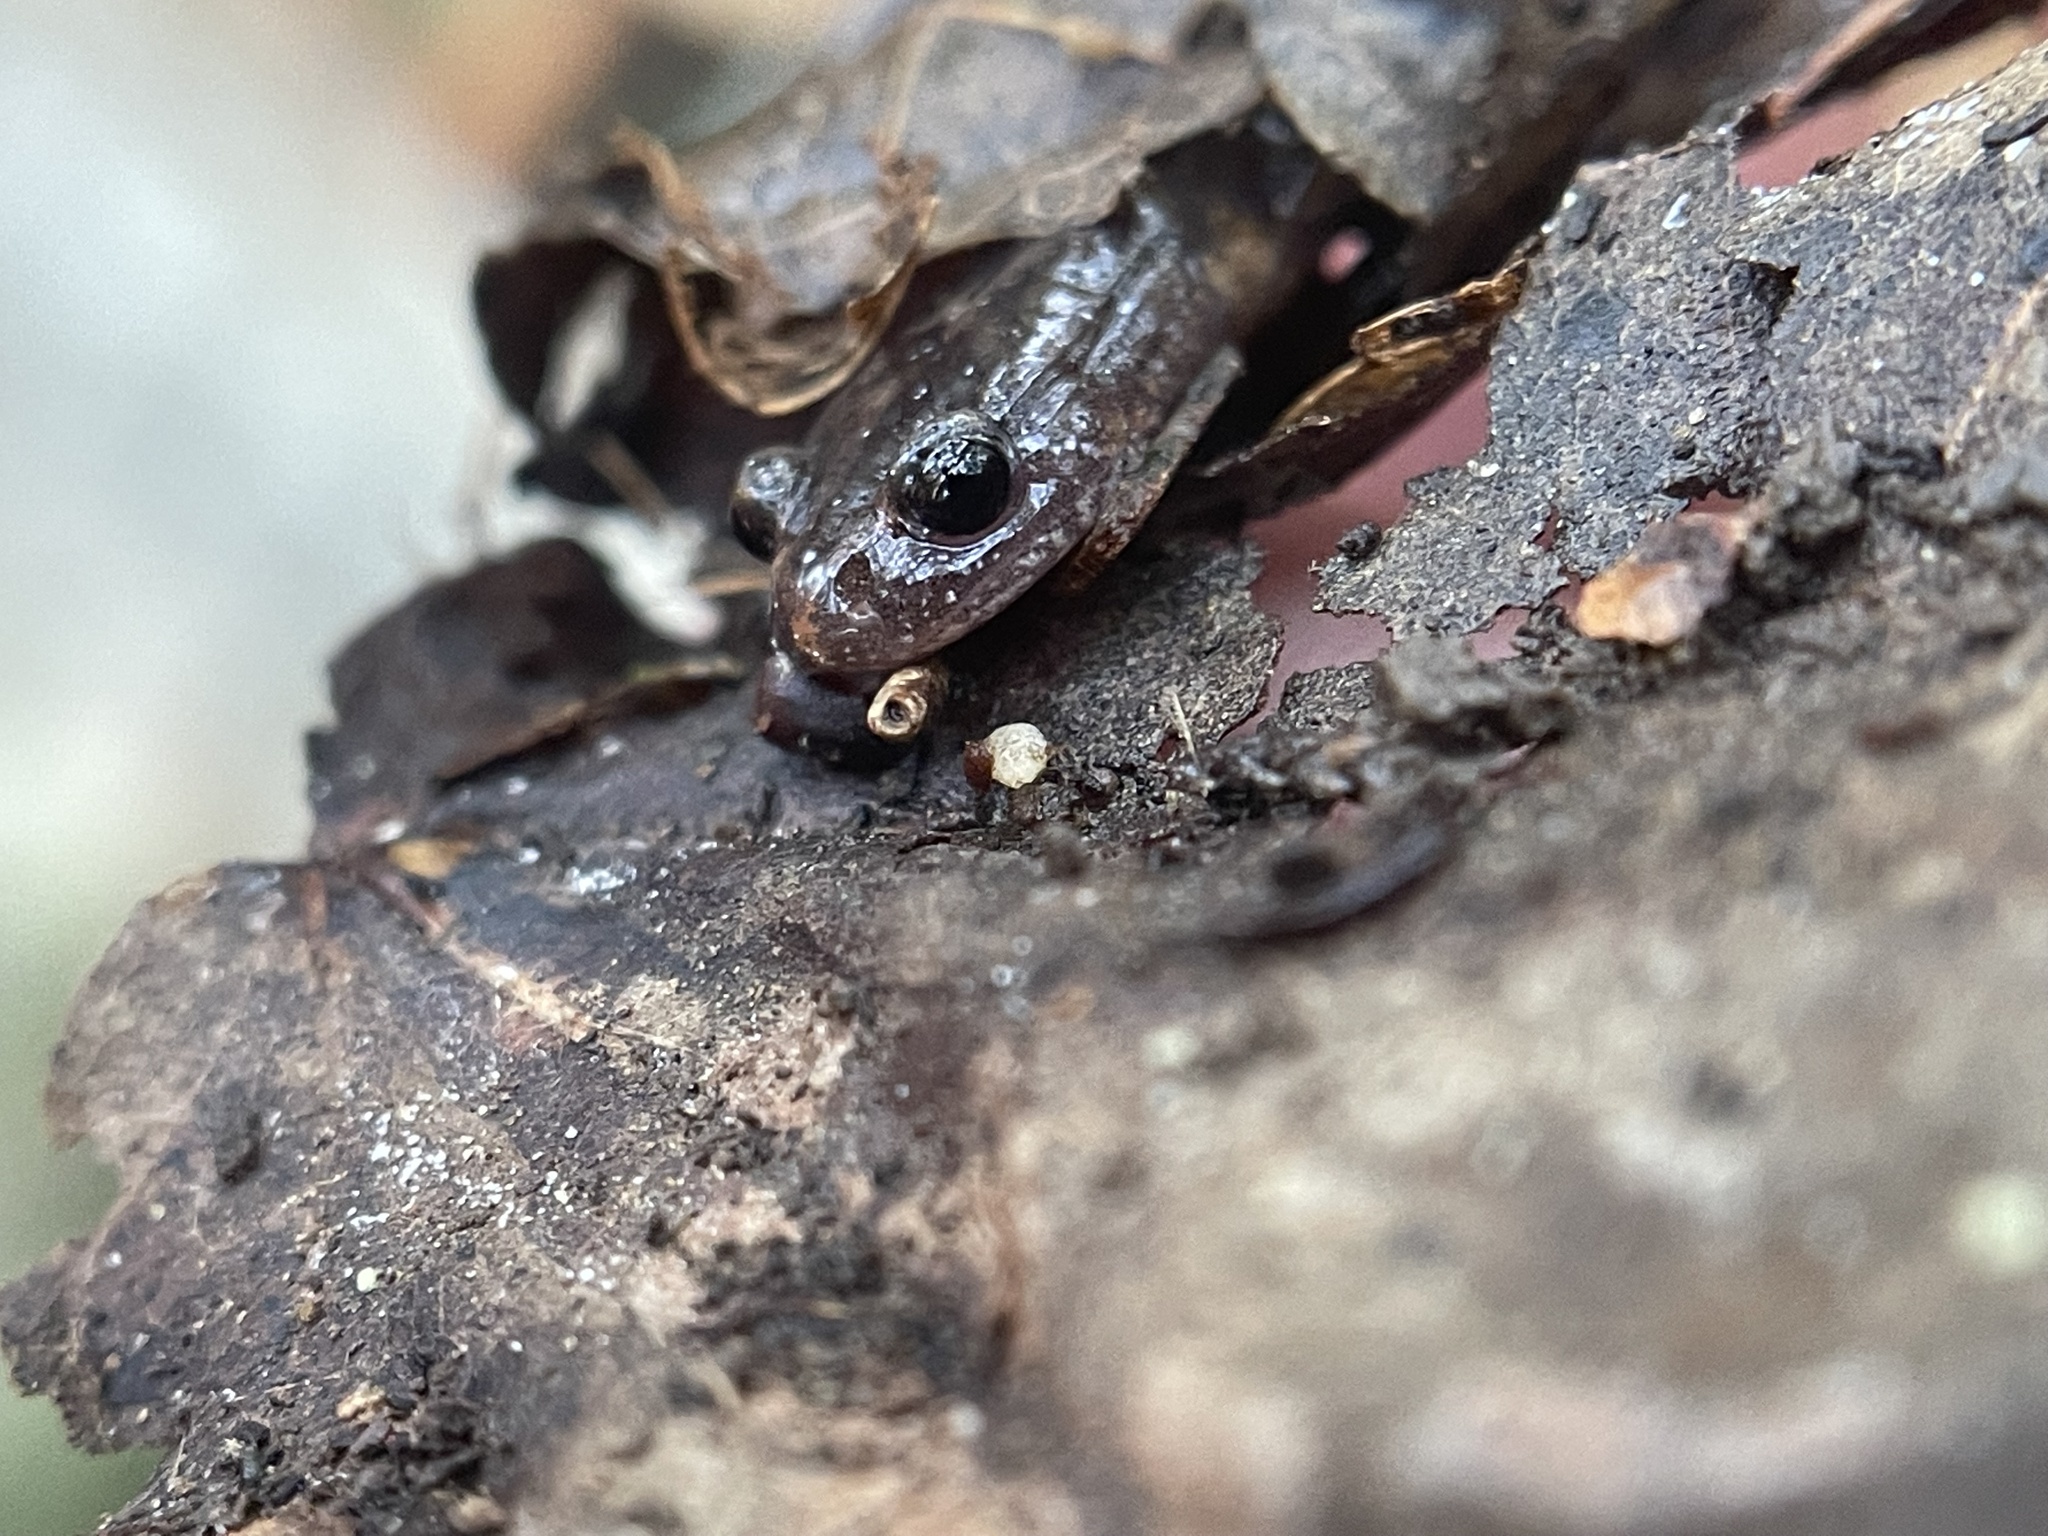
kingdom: Animalia
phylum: Chordata
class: Amphibia
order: Caudata
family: Plethodontidae
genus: Plethodon
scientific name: Plethodon dorsalis
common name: Northern zigzag salamander
